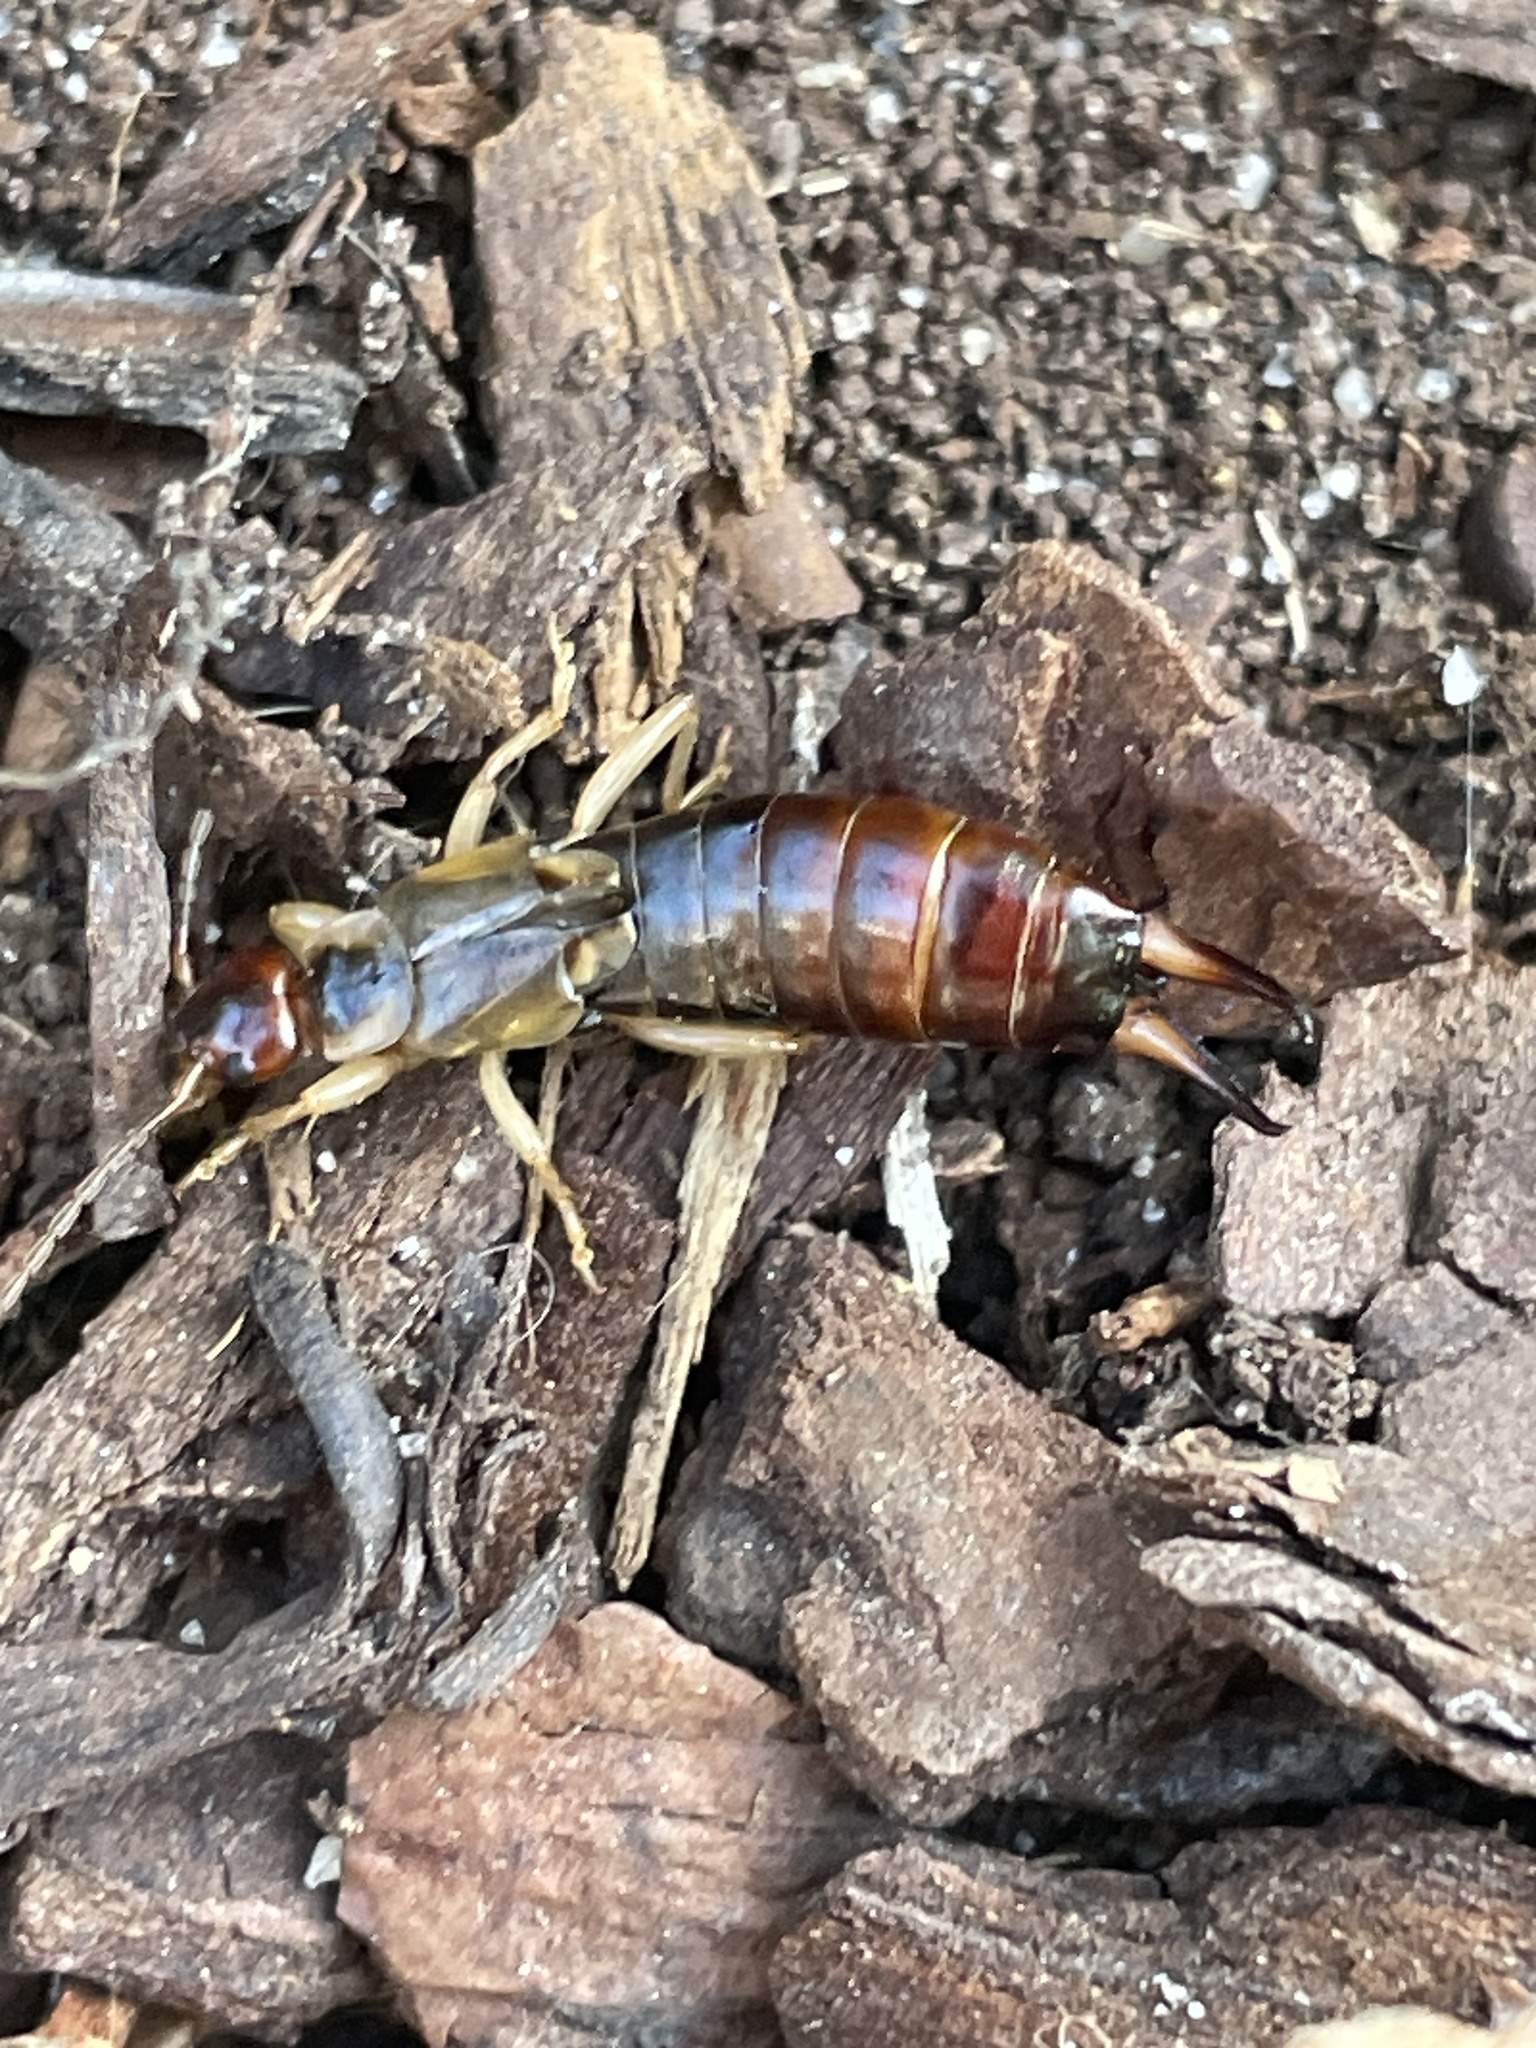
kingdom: Animalia
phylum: Arthropoda
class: Insecta
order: Dermaptera
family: Forficulidae
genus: Forficula
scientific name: Forficula dentata
